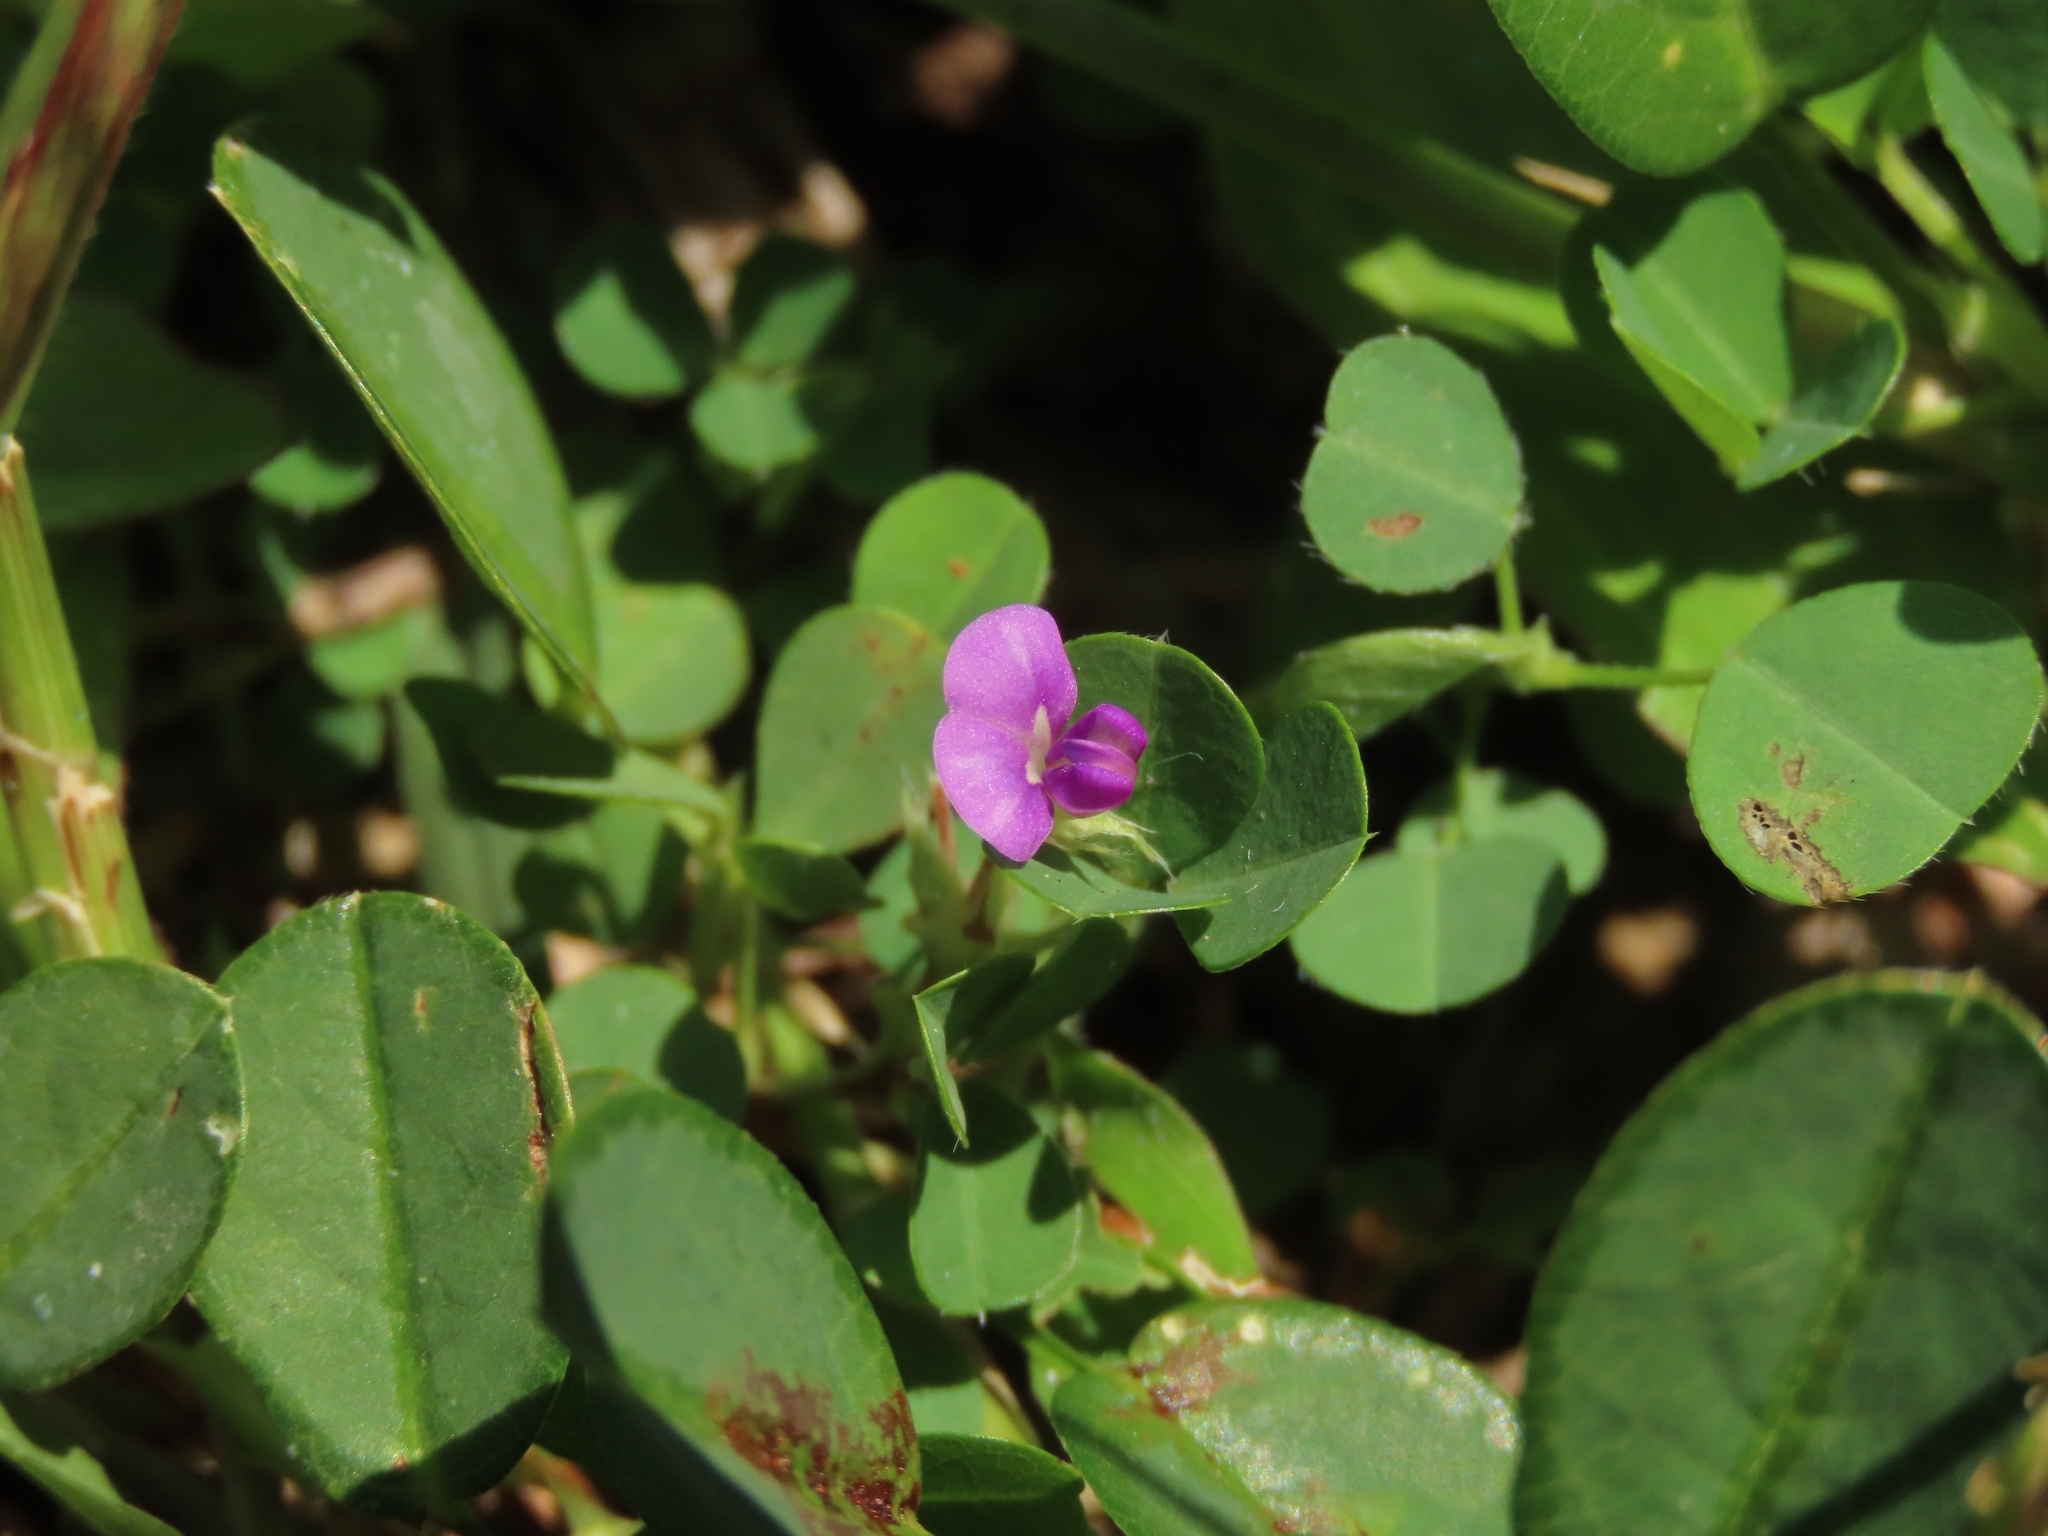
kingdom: Plantae
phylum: Tracheophyta
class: Magnoliopsida
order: Fabales
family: Fabaceae
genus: Grona
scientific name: Grona triflora
